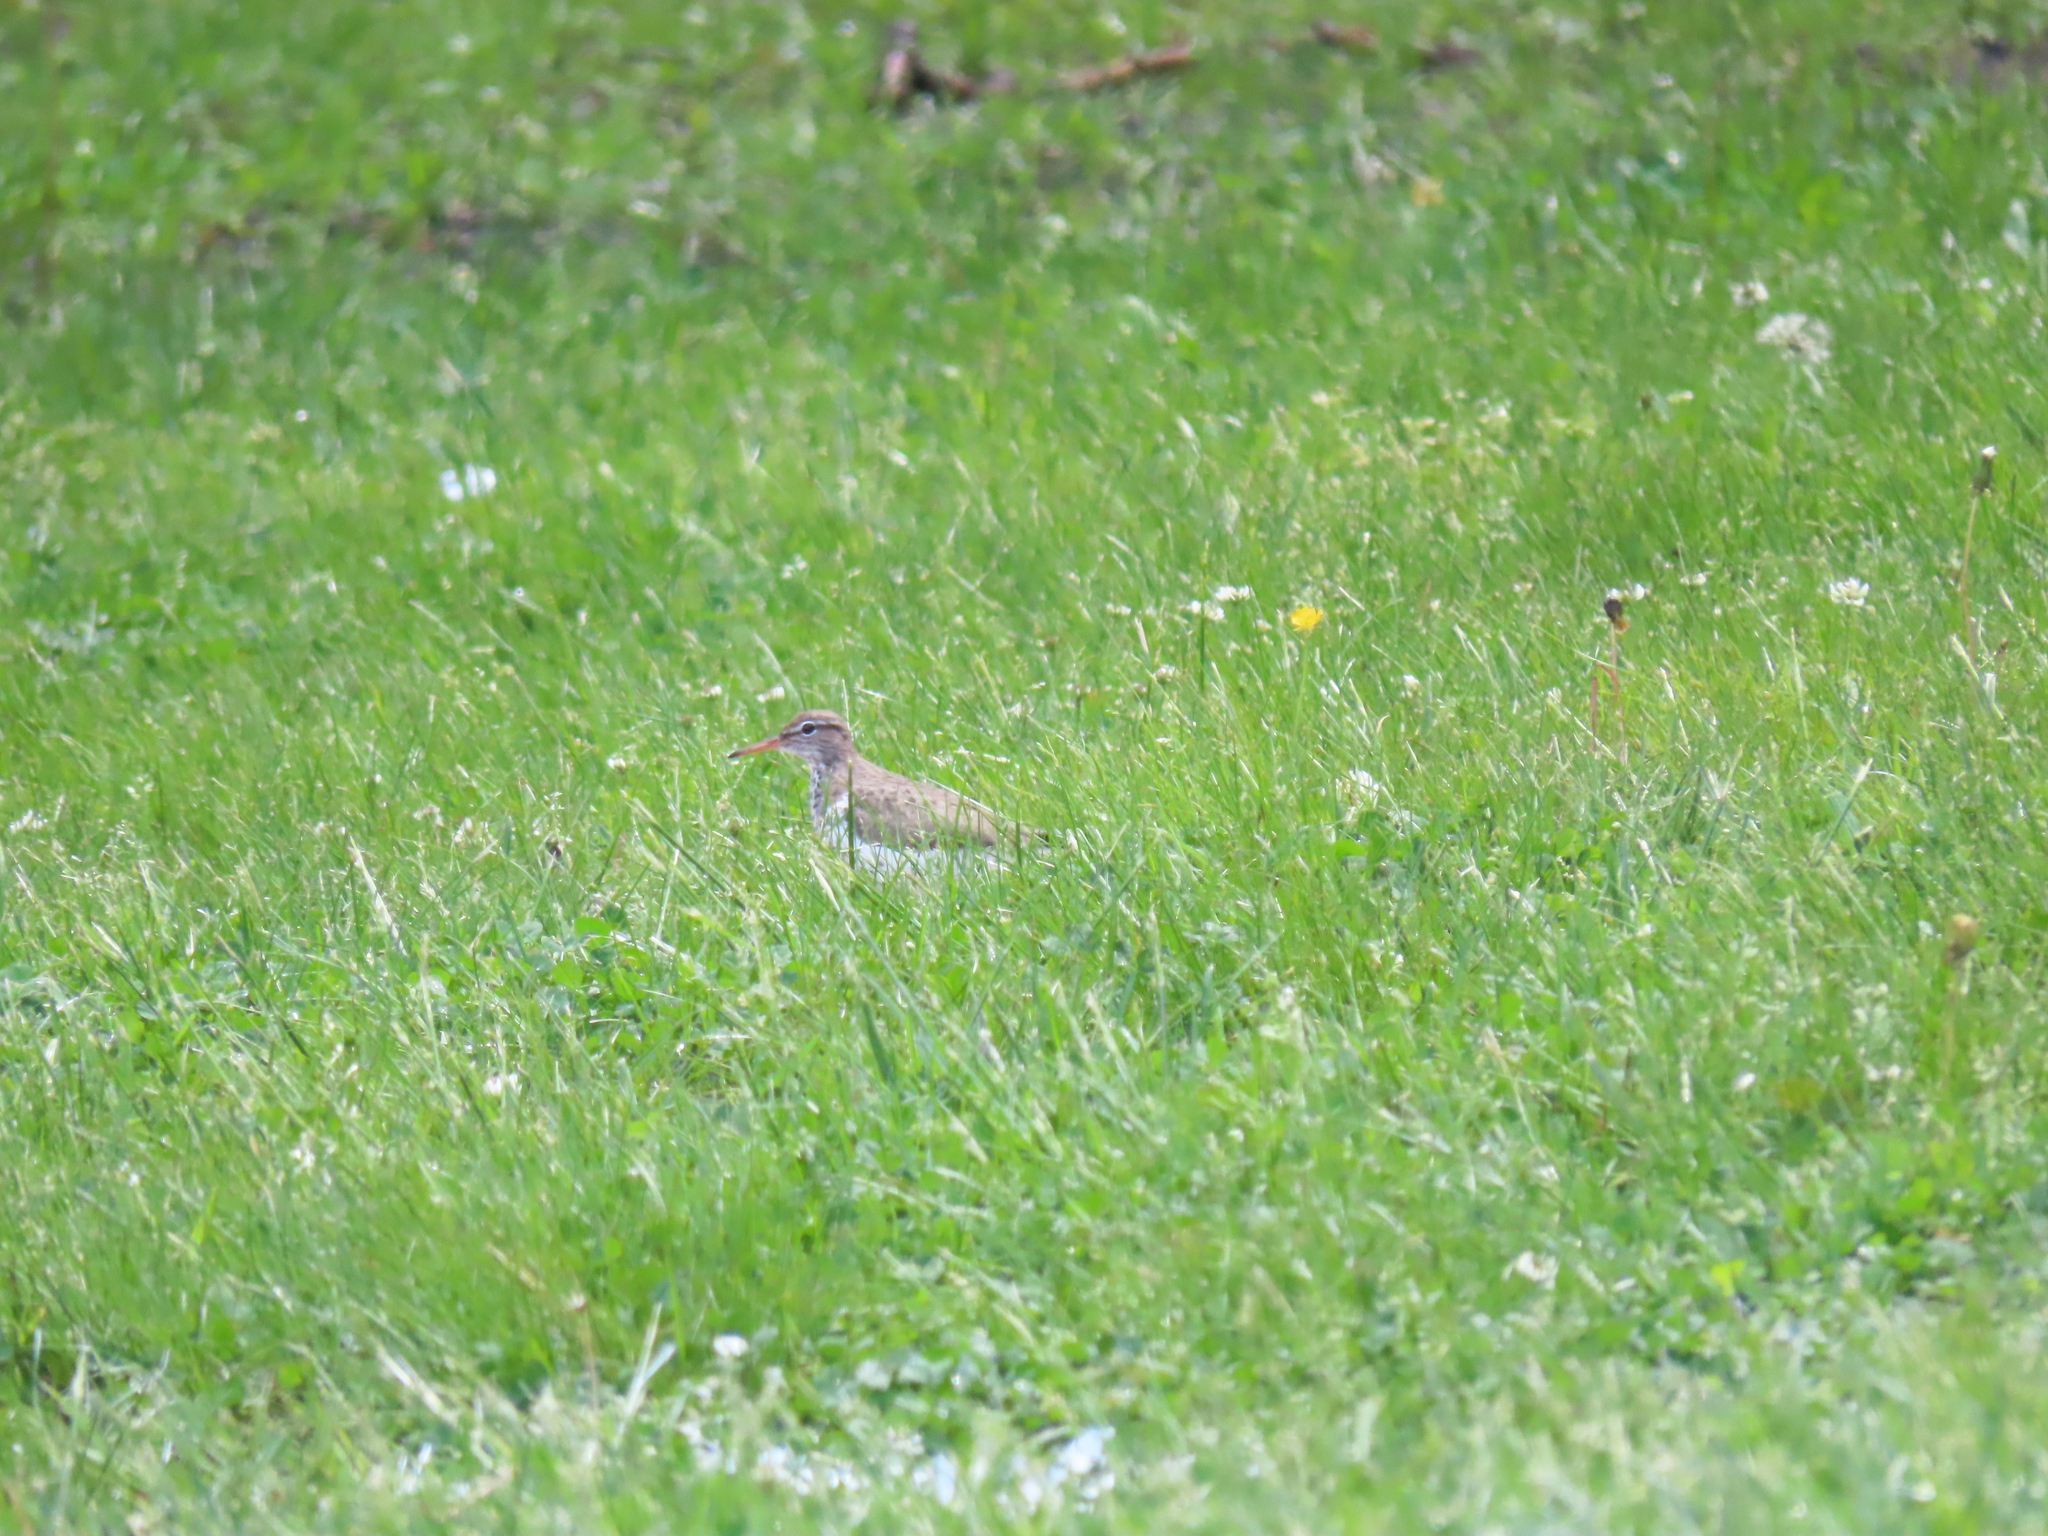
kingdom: Animalia
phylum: Chordata
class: Aves
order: Charadriiformes
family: Scolopacidae
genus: Actitis
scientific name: Actitis macularius
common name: Spotted sandpiper
